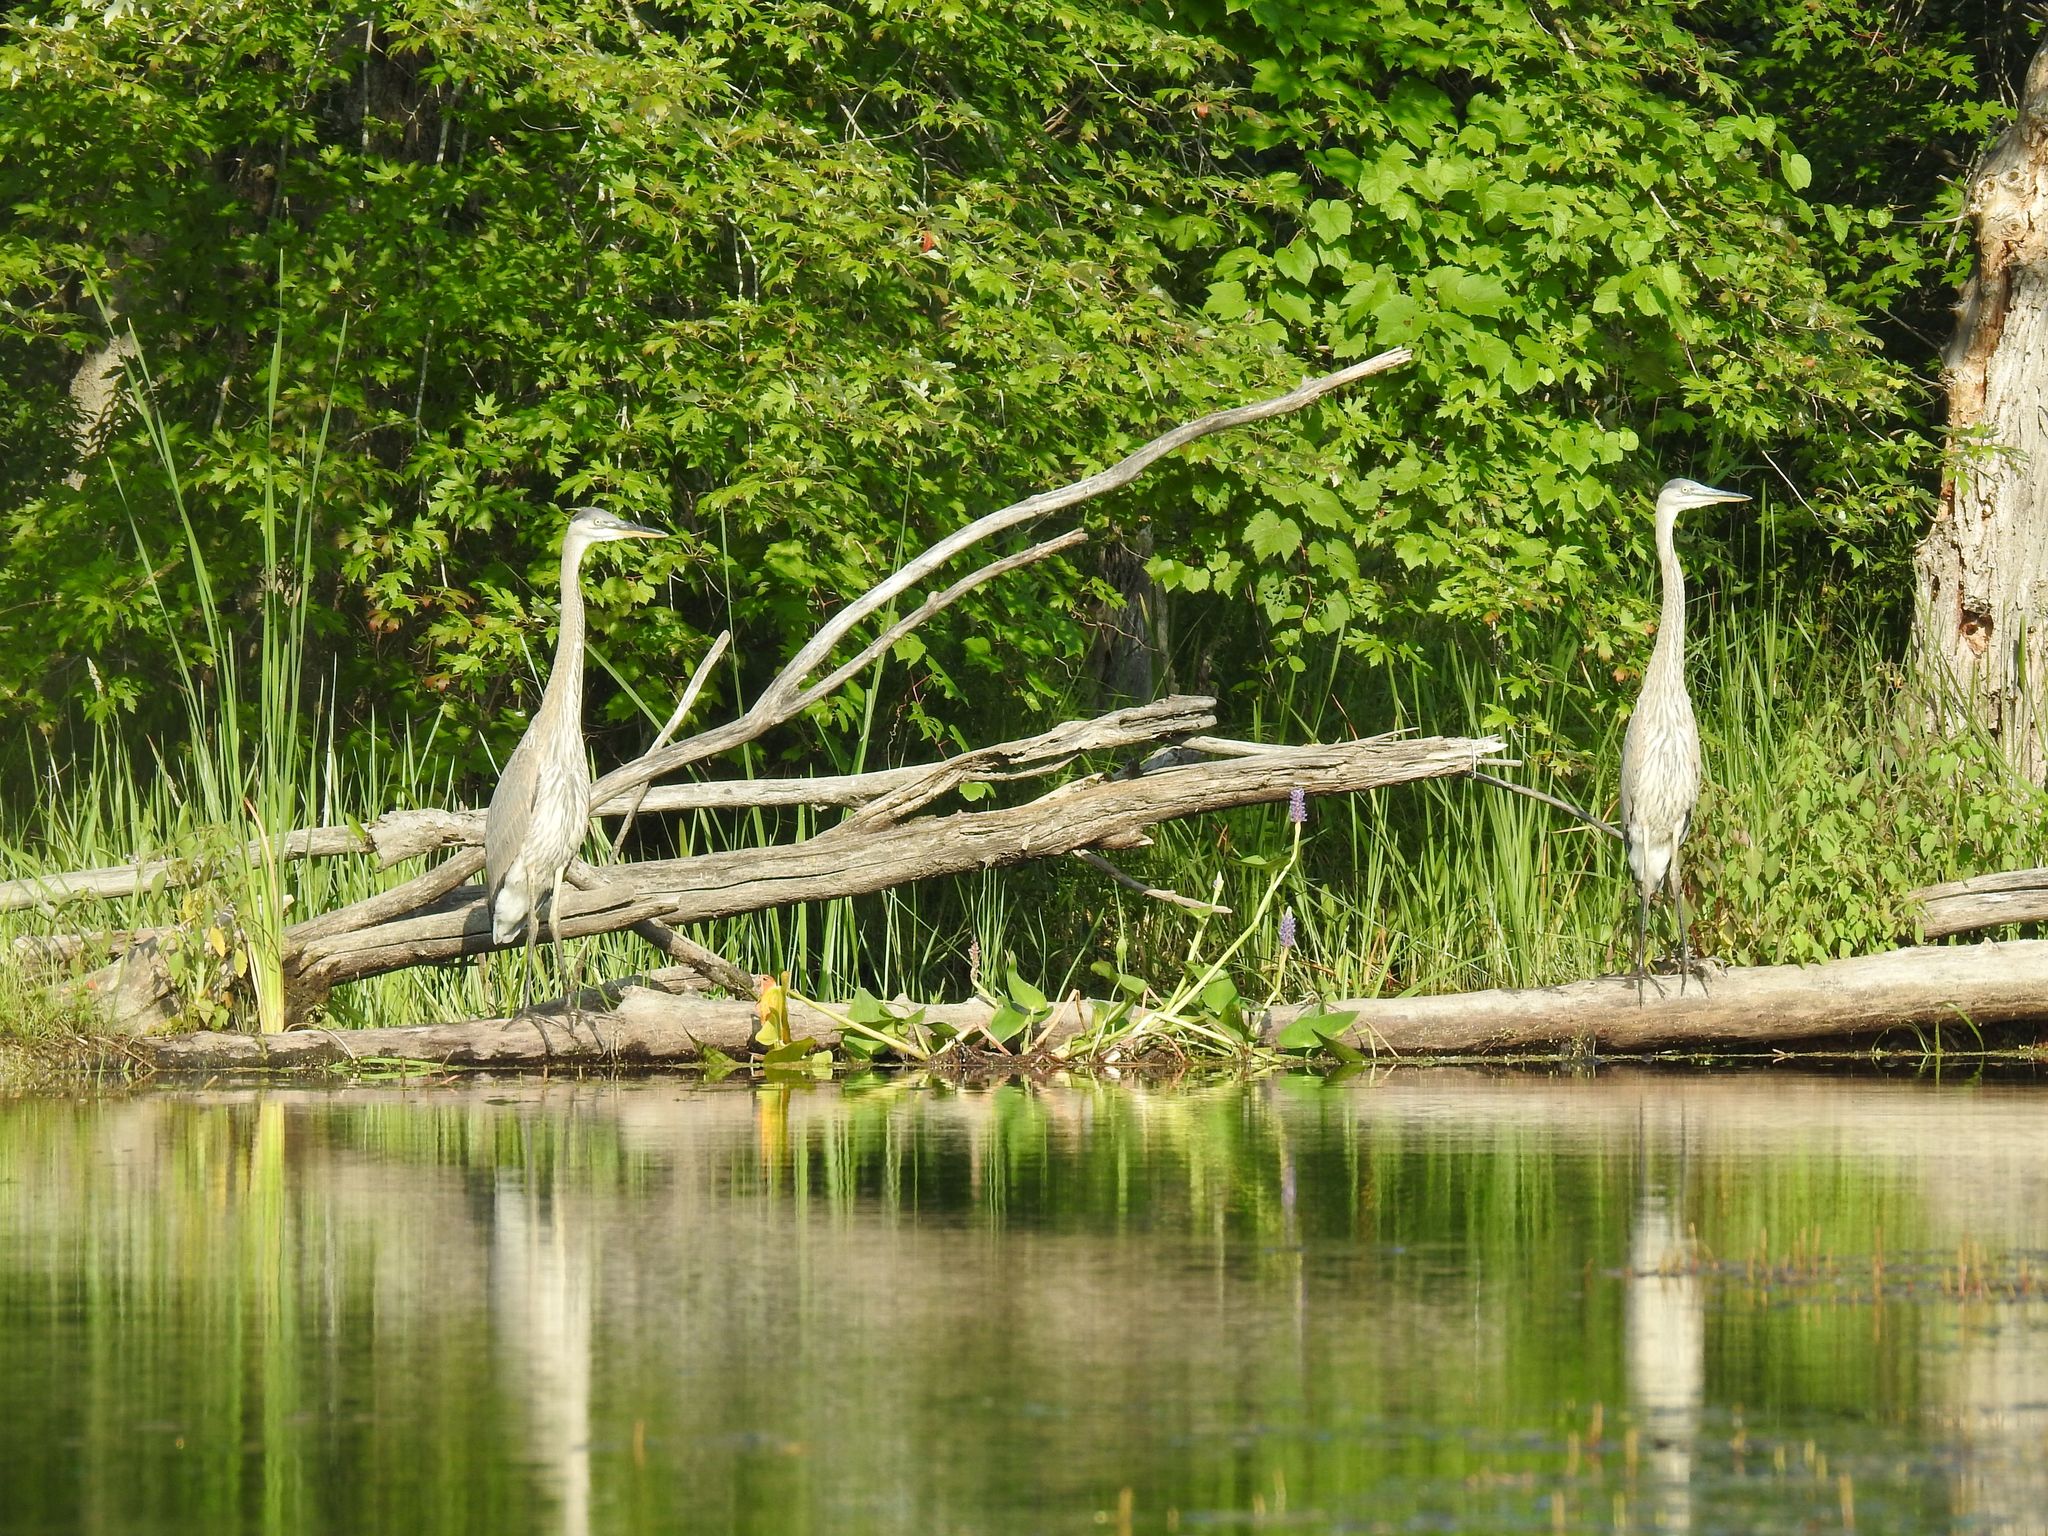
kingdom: Animalia
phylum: Chordata
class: Aves
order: Pelecaniformes
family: Ardeidae
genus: Ardea
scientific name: Ardea herodias
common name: Great blue heron
